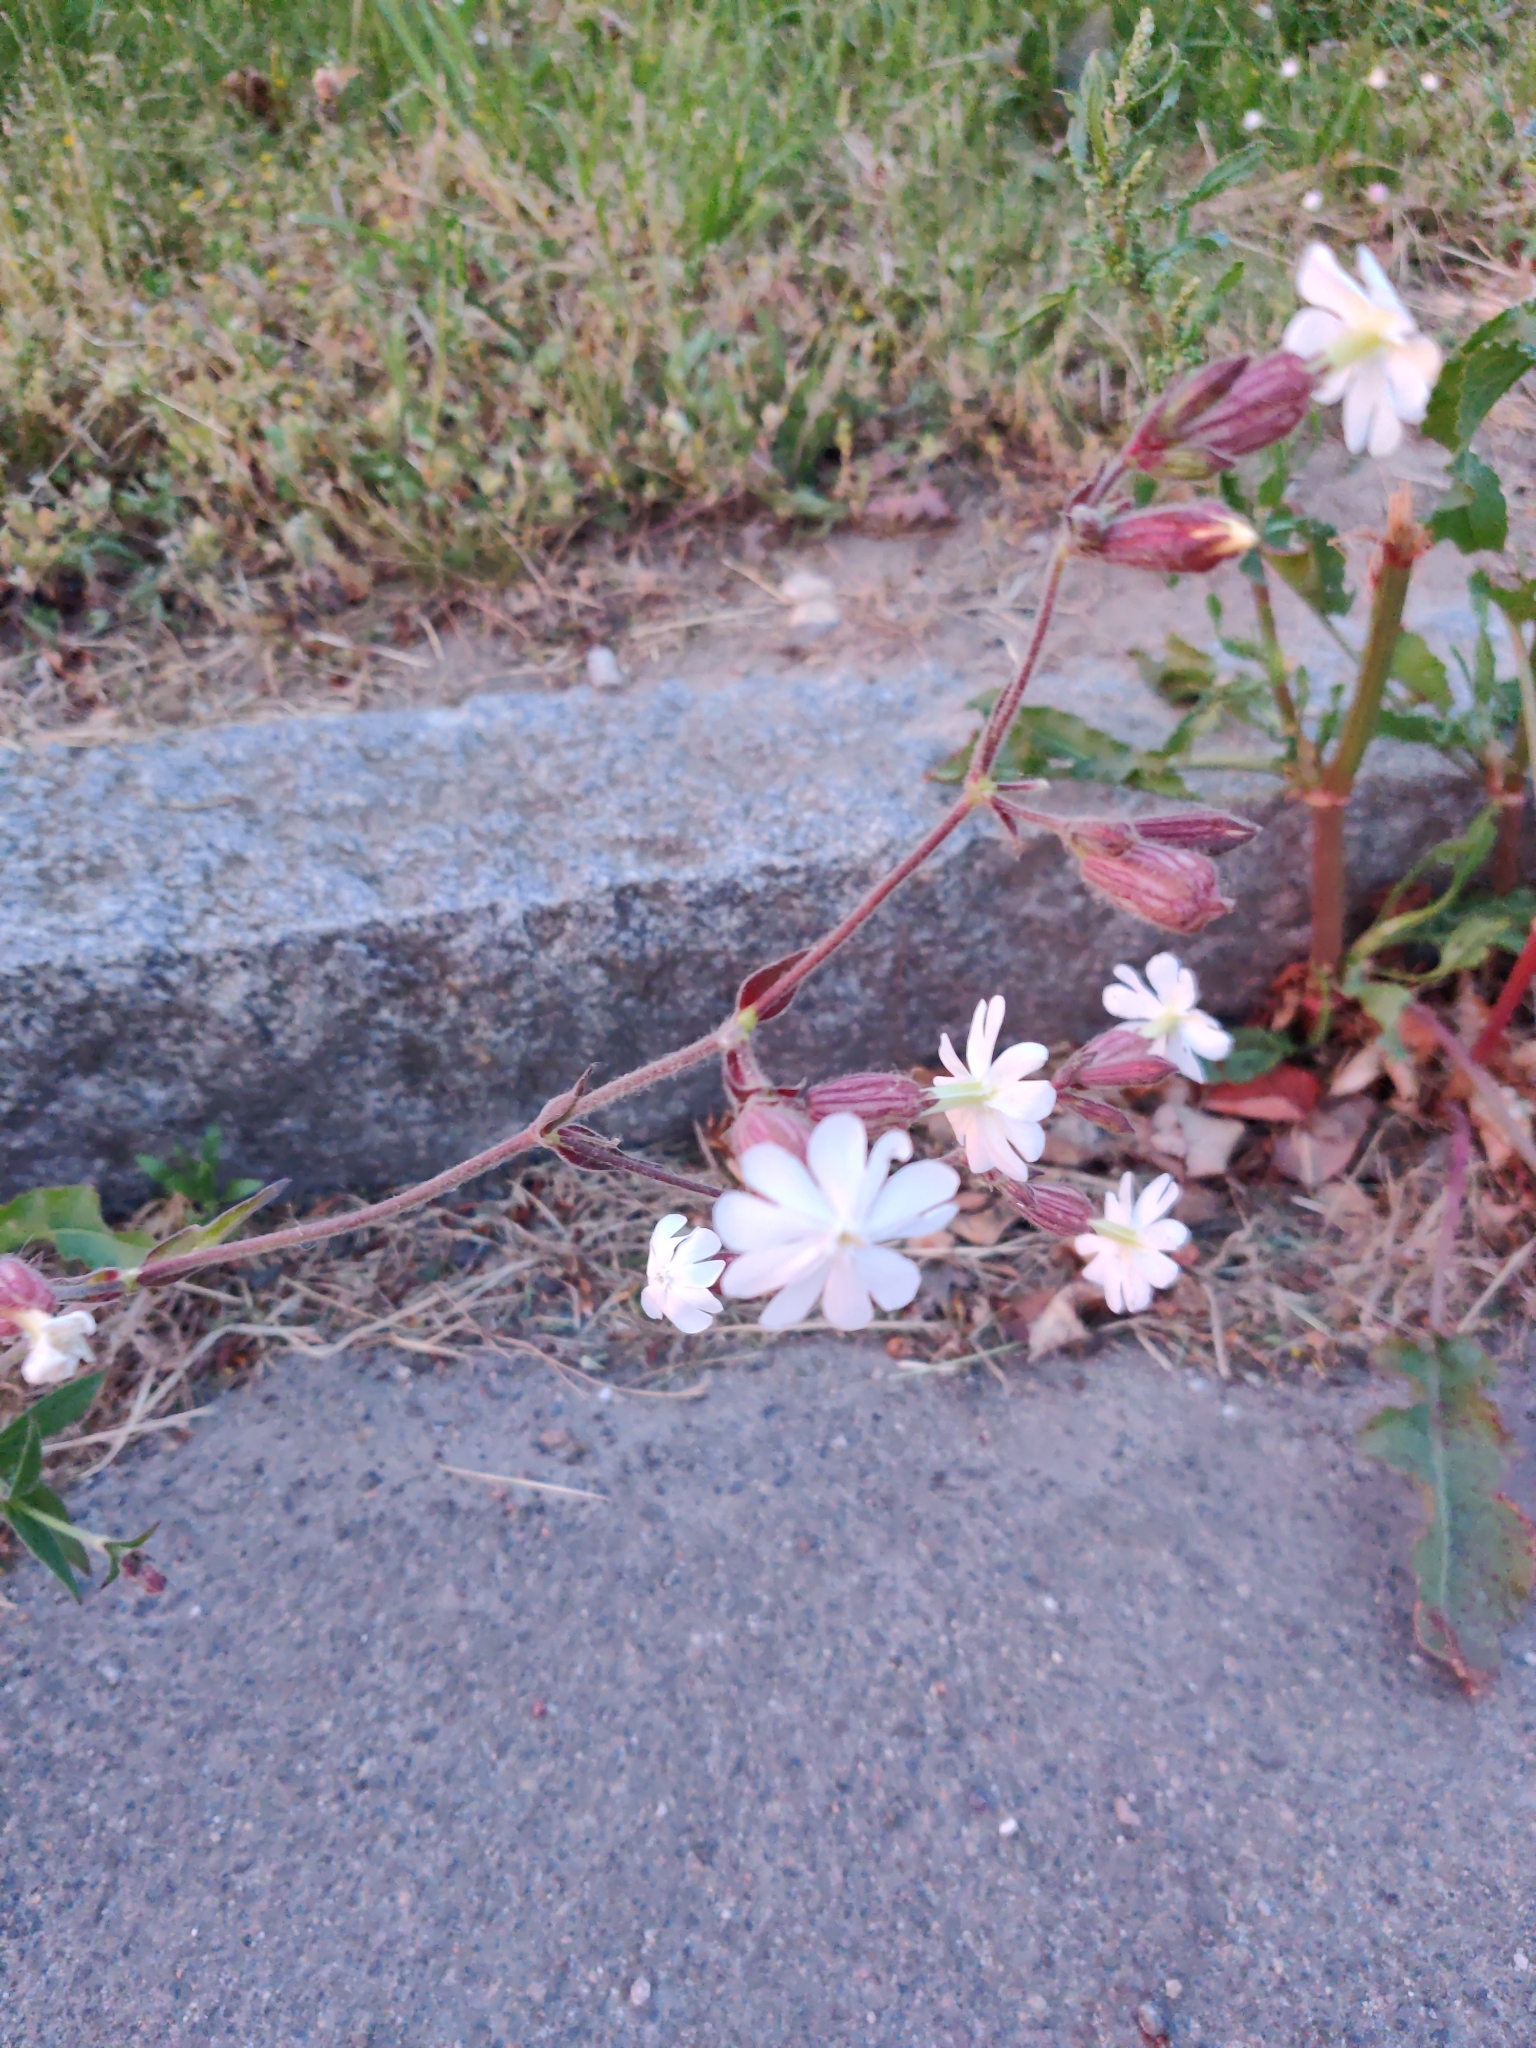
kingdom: Plantae
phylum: Tracheophyta
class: Magnoliopsida
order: Caryophyllales
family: Caryophyllaceae
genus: Silene
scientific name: Silene latifolia
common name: White campion
